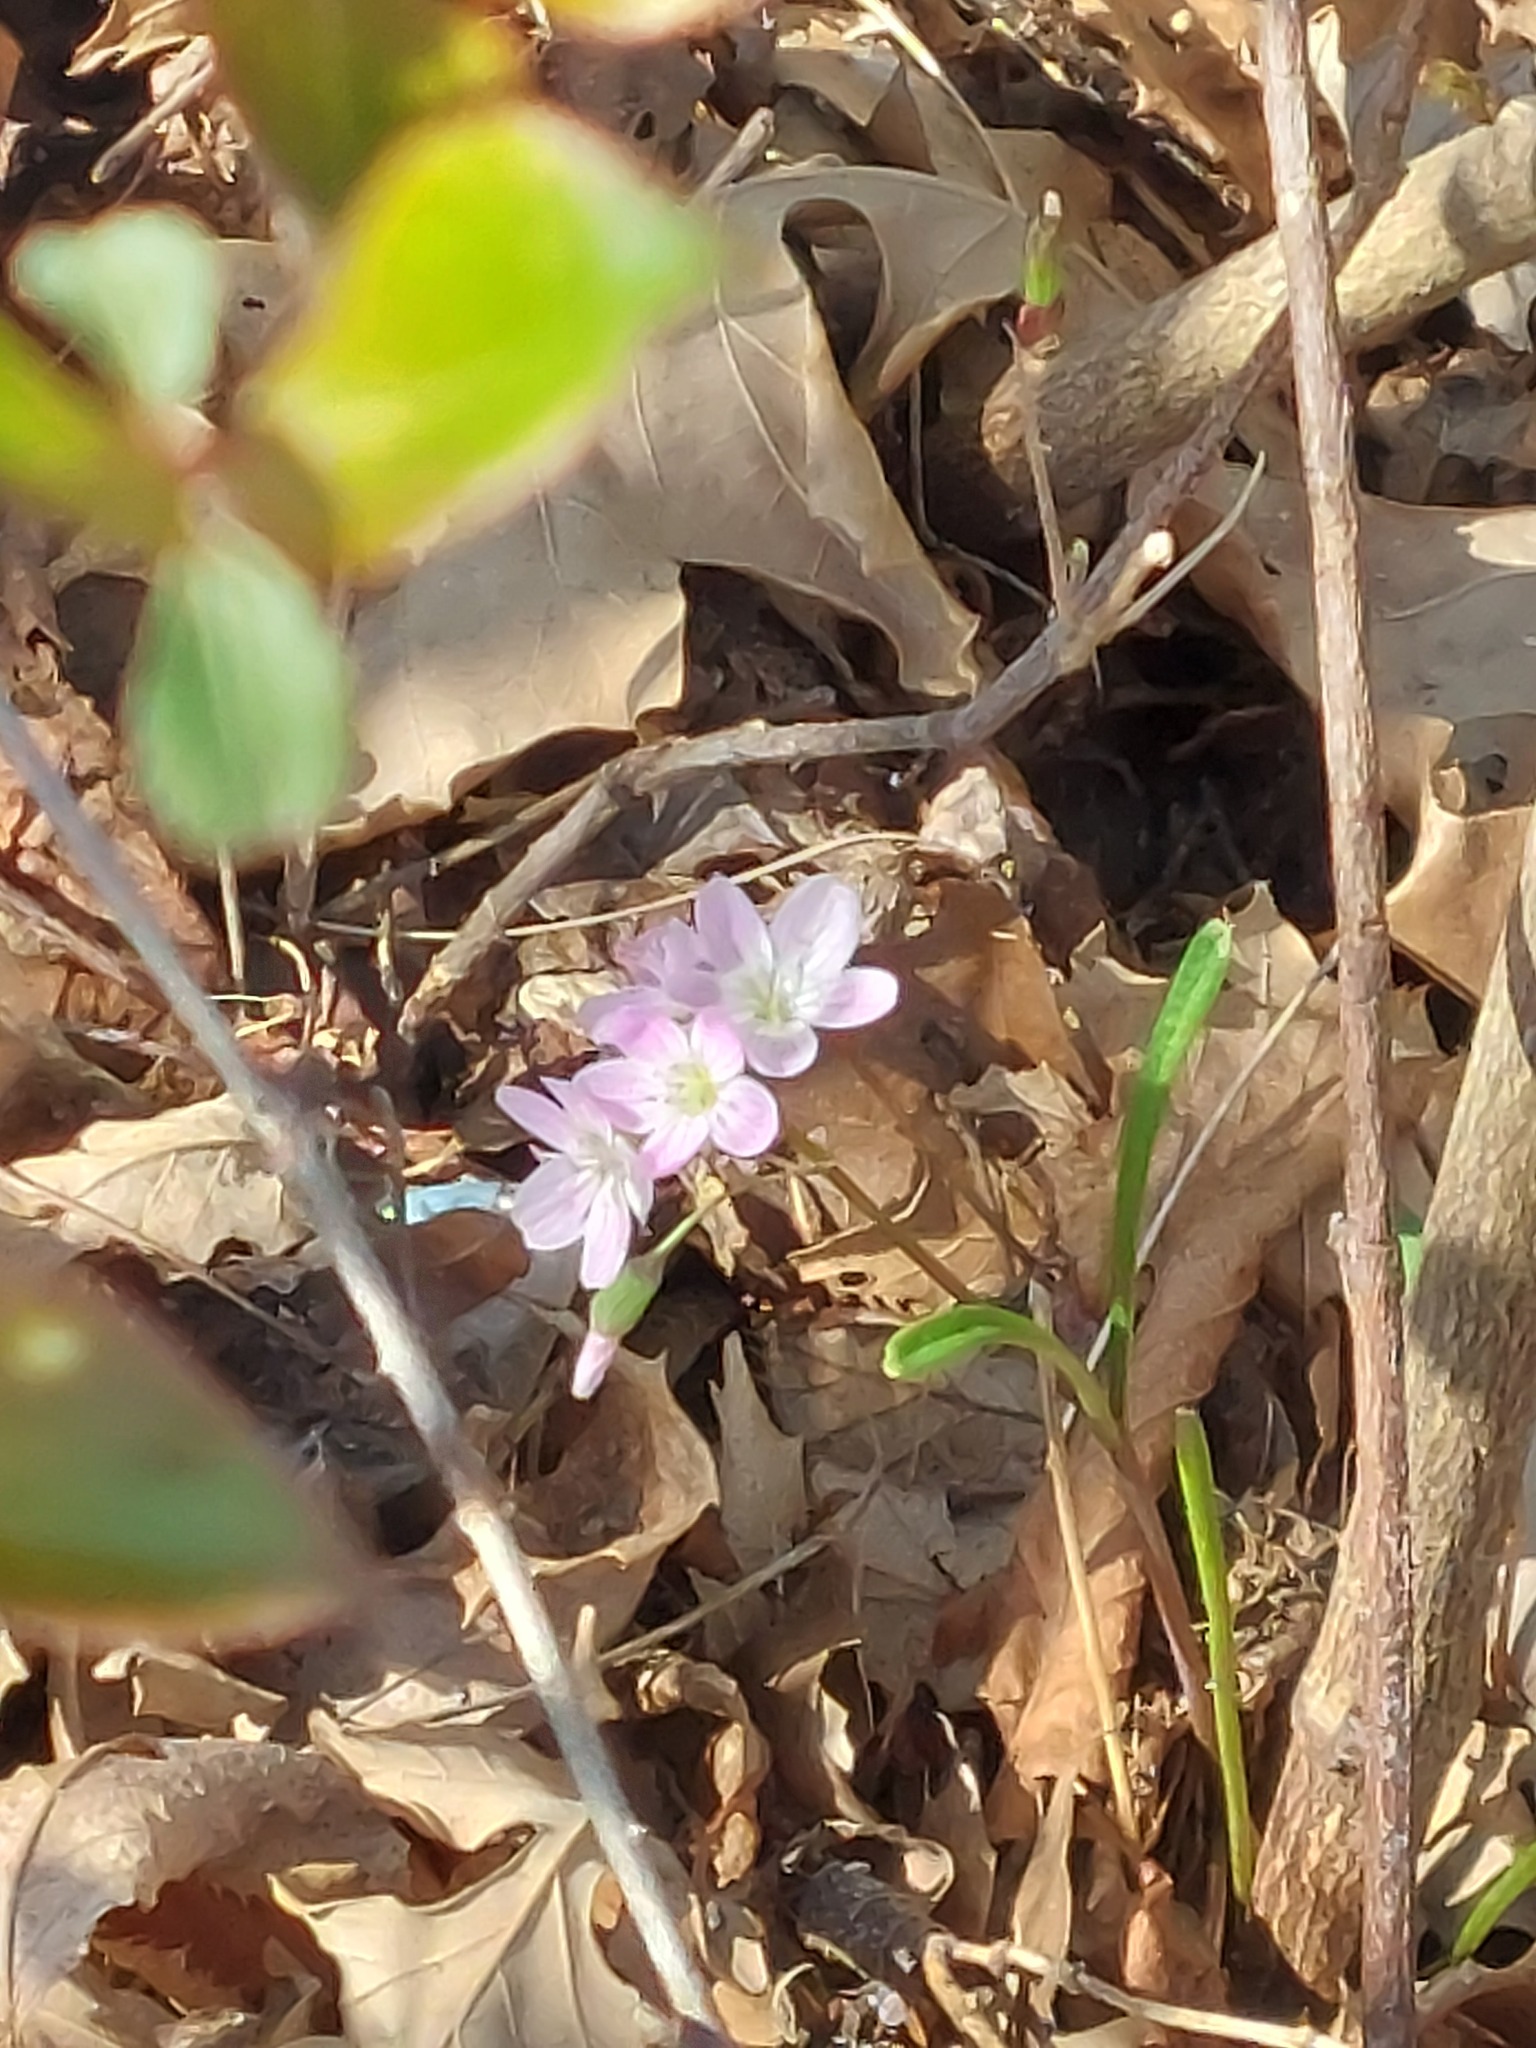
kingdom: Plantae
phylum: Tracheophyta
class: Magnoliopsida
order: Caryophyllales
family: Montiaceae
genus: Claytonia
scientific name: Claytonia virginica
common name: Virginia springbeauty
